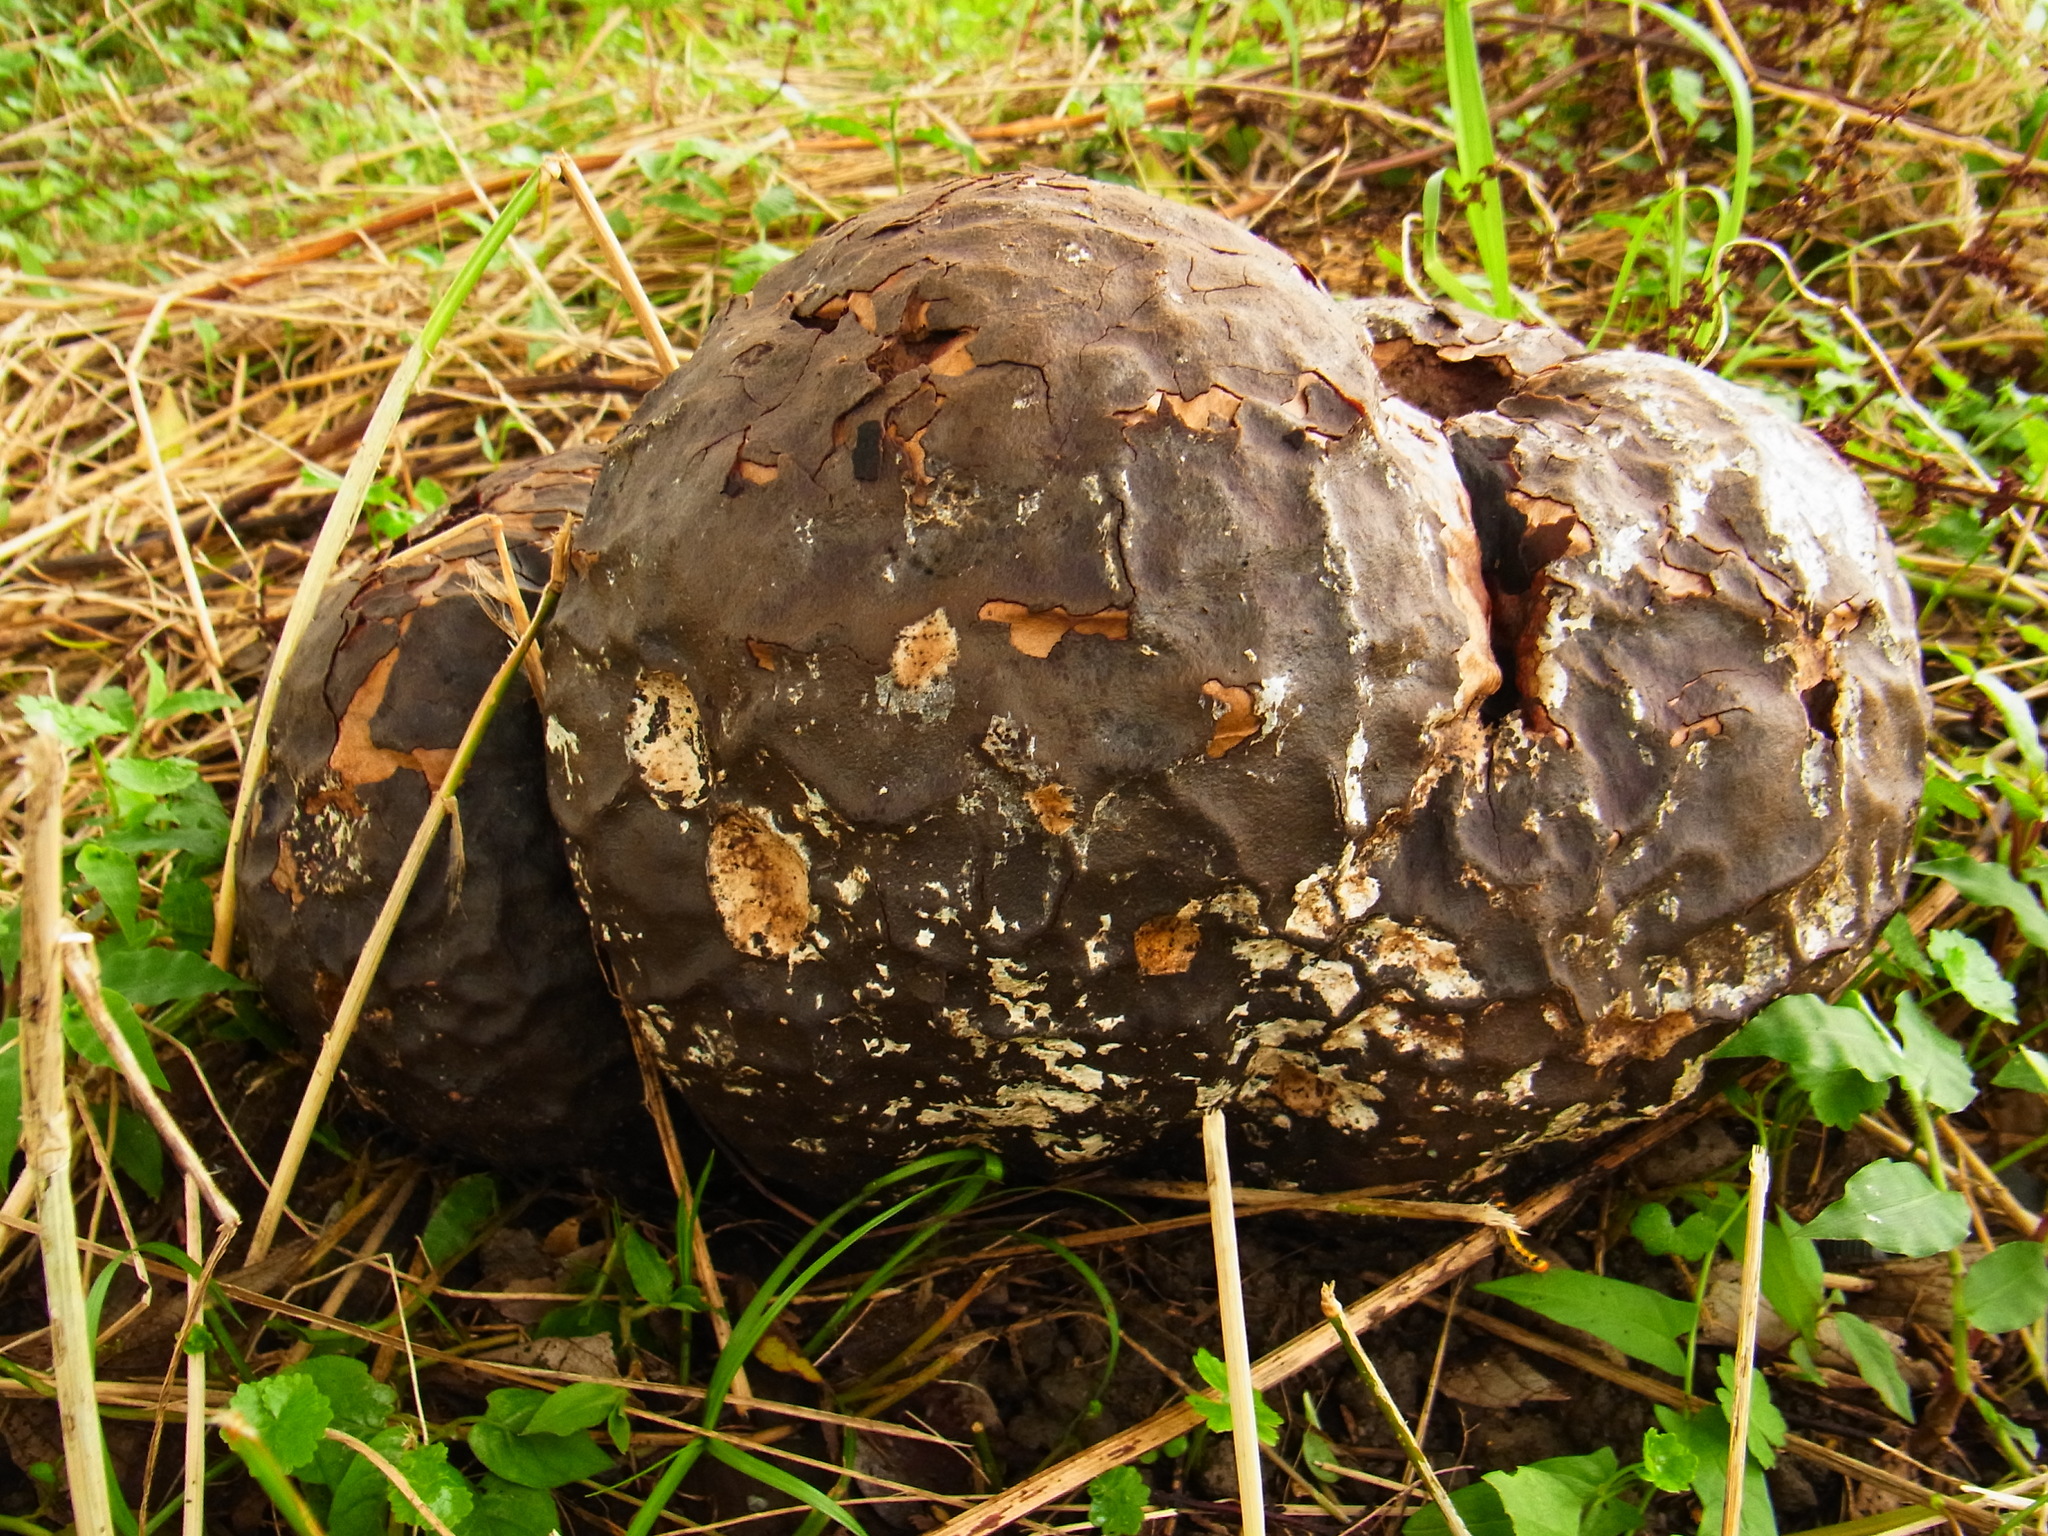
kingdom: Fungi
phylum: Basidiomycota
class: Agaricomycetes
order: Agaricales
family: Lycoperdaceae
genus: Calvatia
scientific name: Calvatia nipponica
